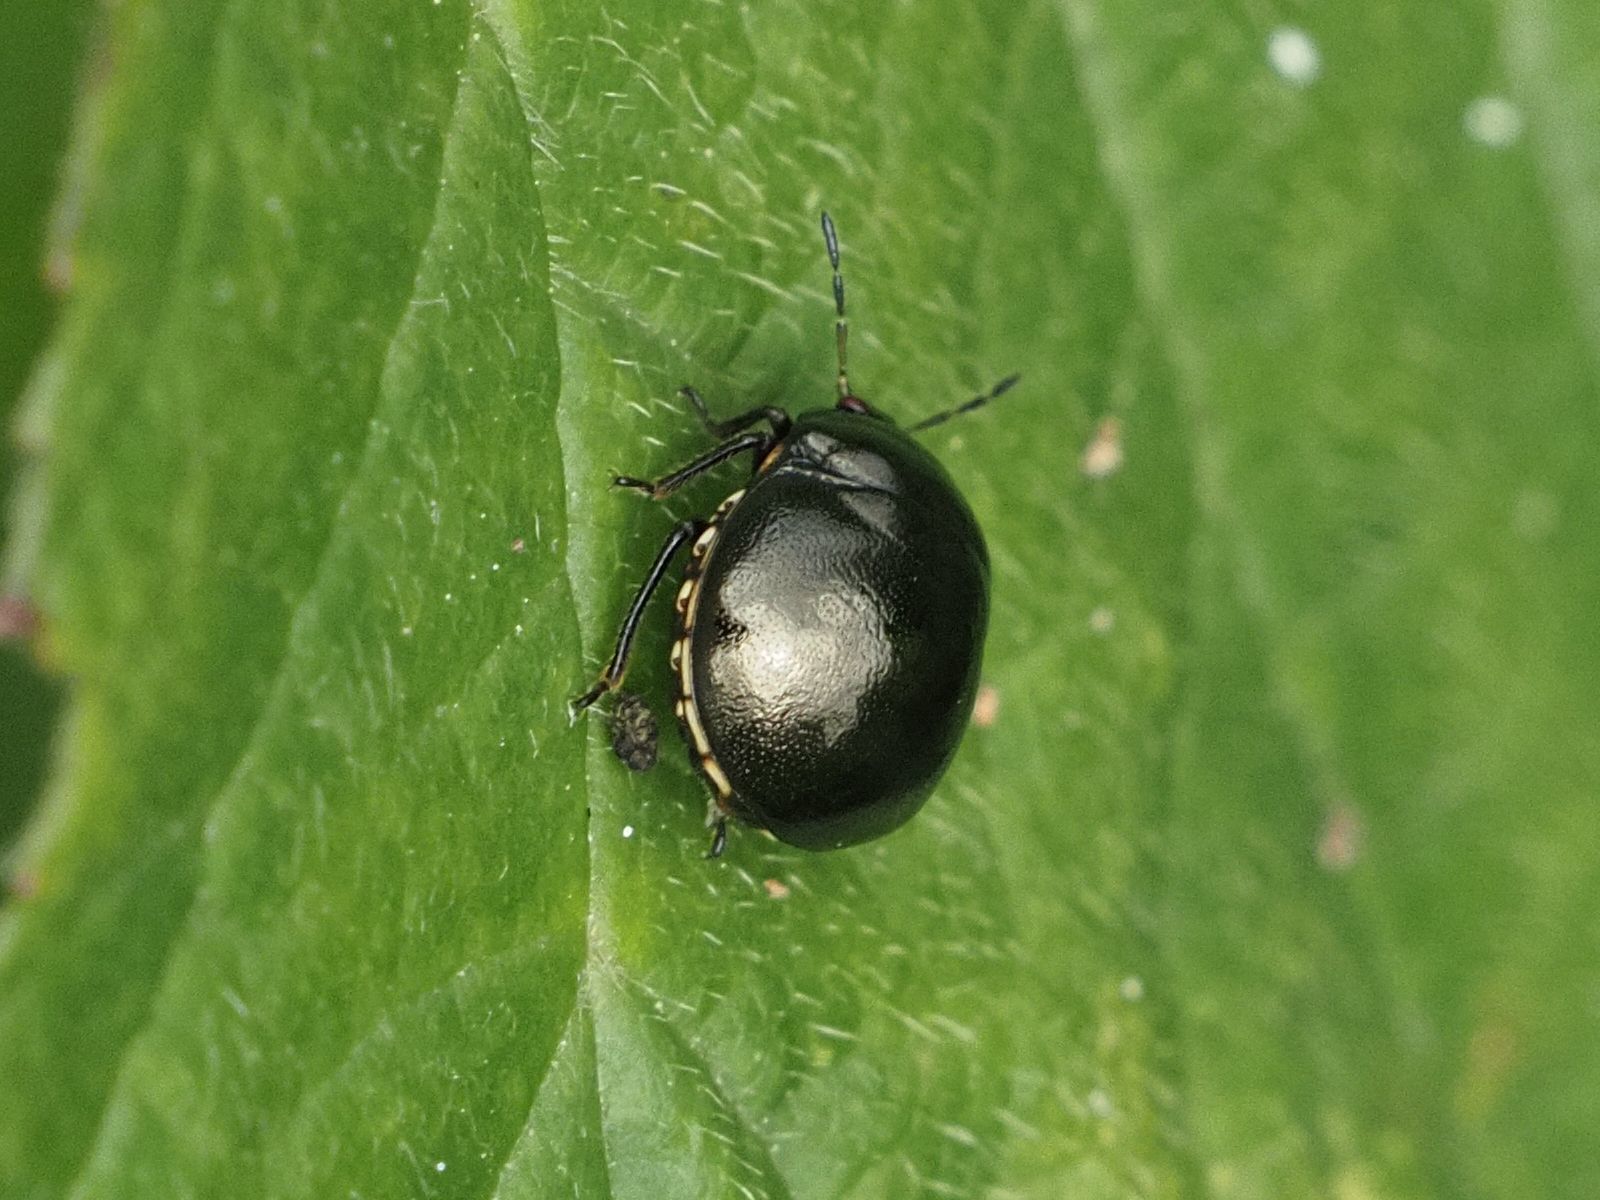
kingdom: Animalia
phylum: Arthropoda
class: Insecta
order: Hemiptera
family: Plataspidae
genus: Coptosoma
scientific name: Coptosoma scutellatum
